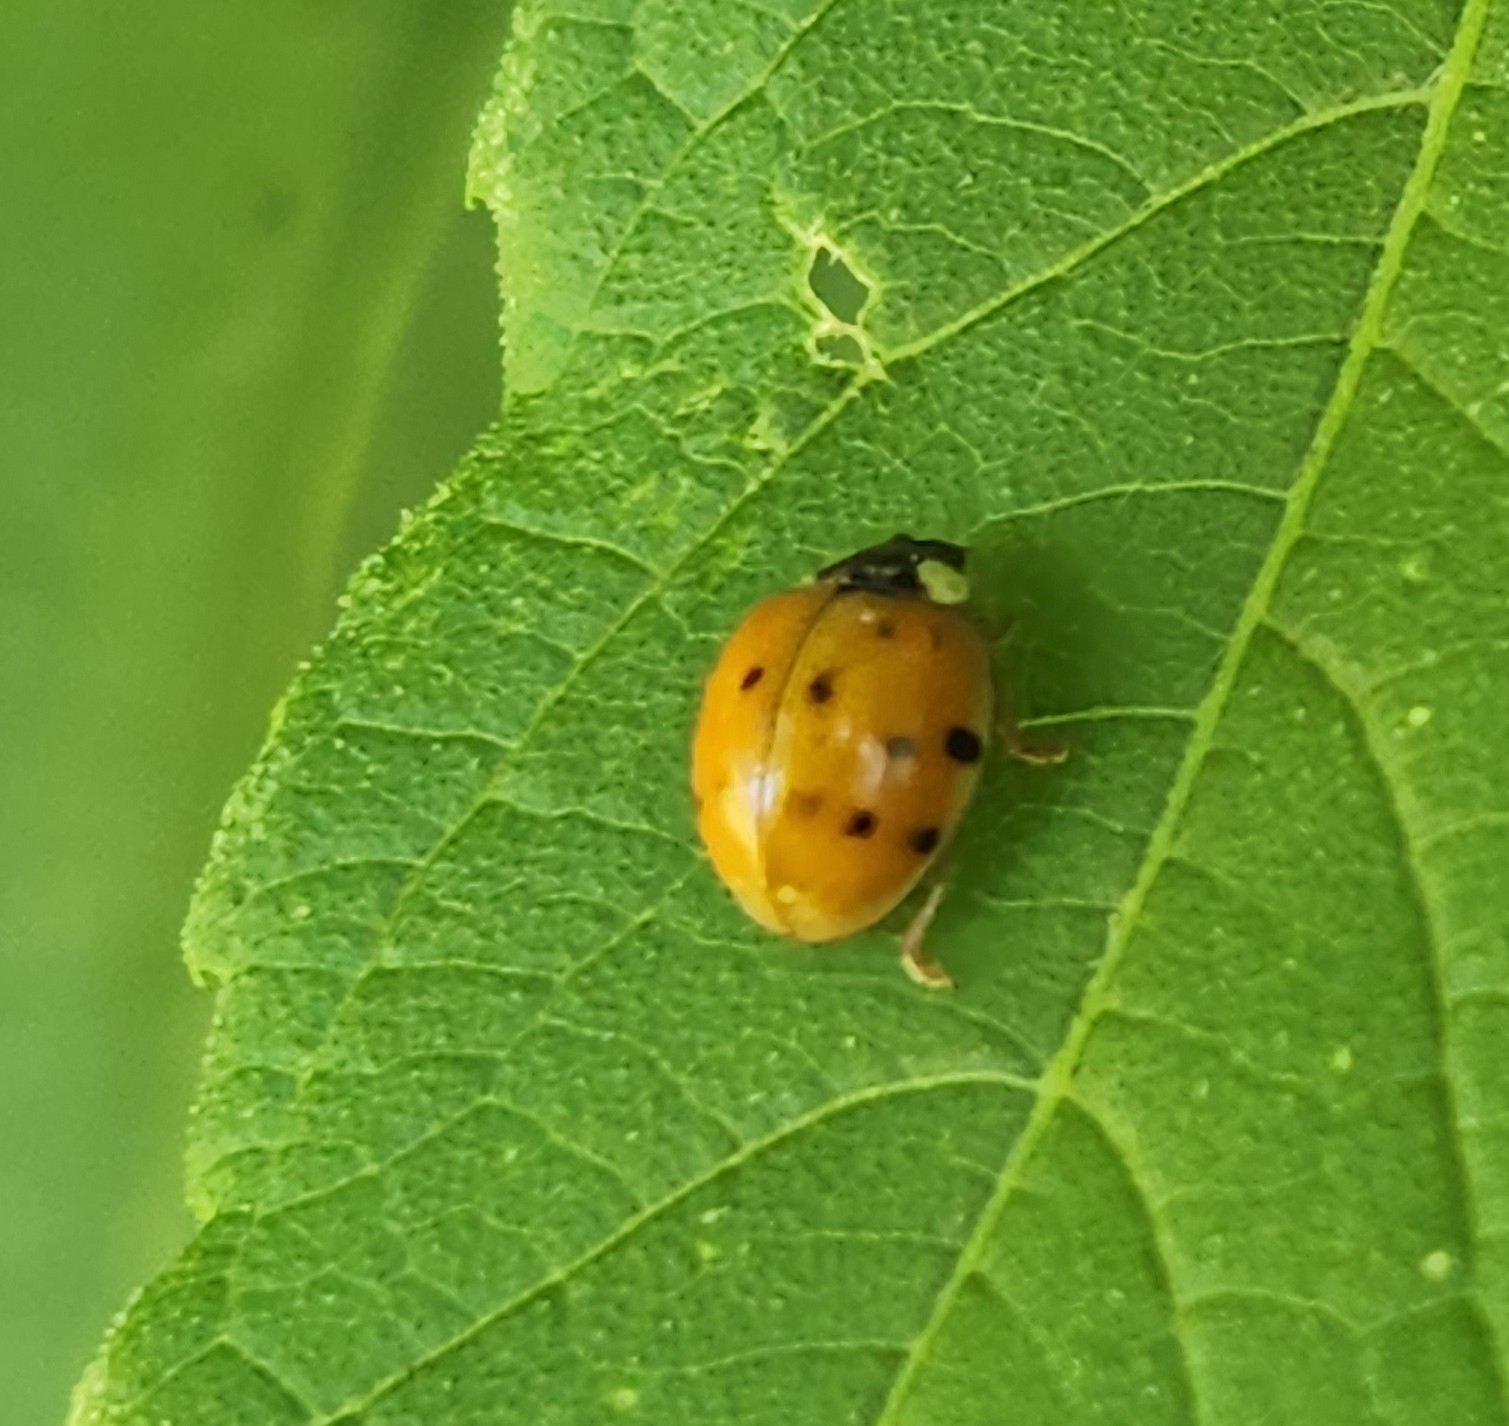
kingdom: Animalia
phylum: Arthropoda
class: Insecta
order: Coleoptera
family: Coccinellidae
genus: Harmonia
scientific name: Harmonia axyridis
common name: Harlequin ladybird
